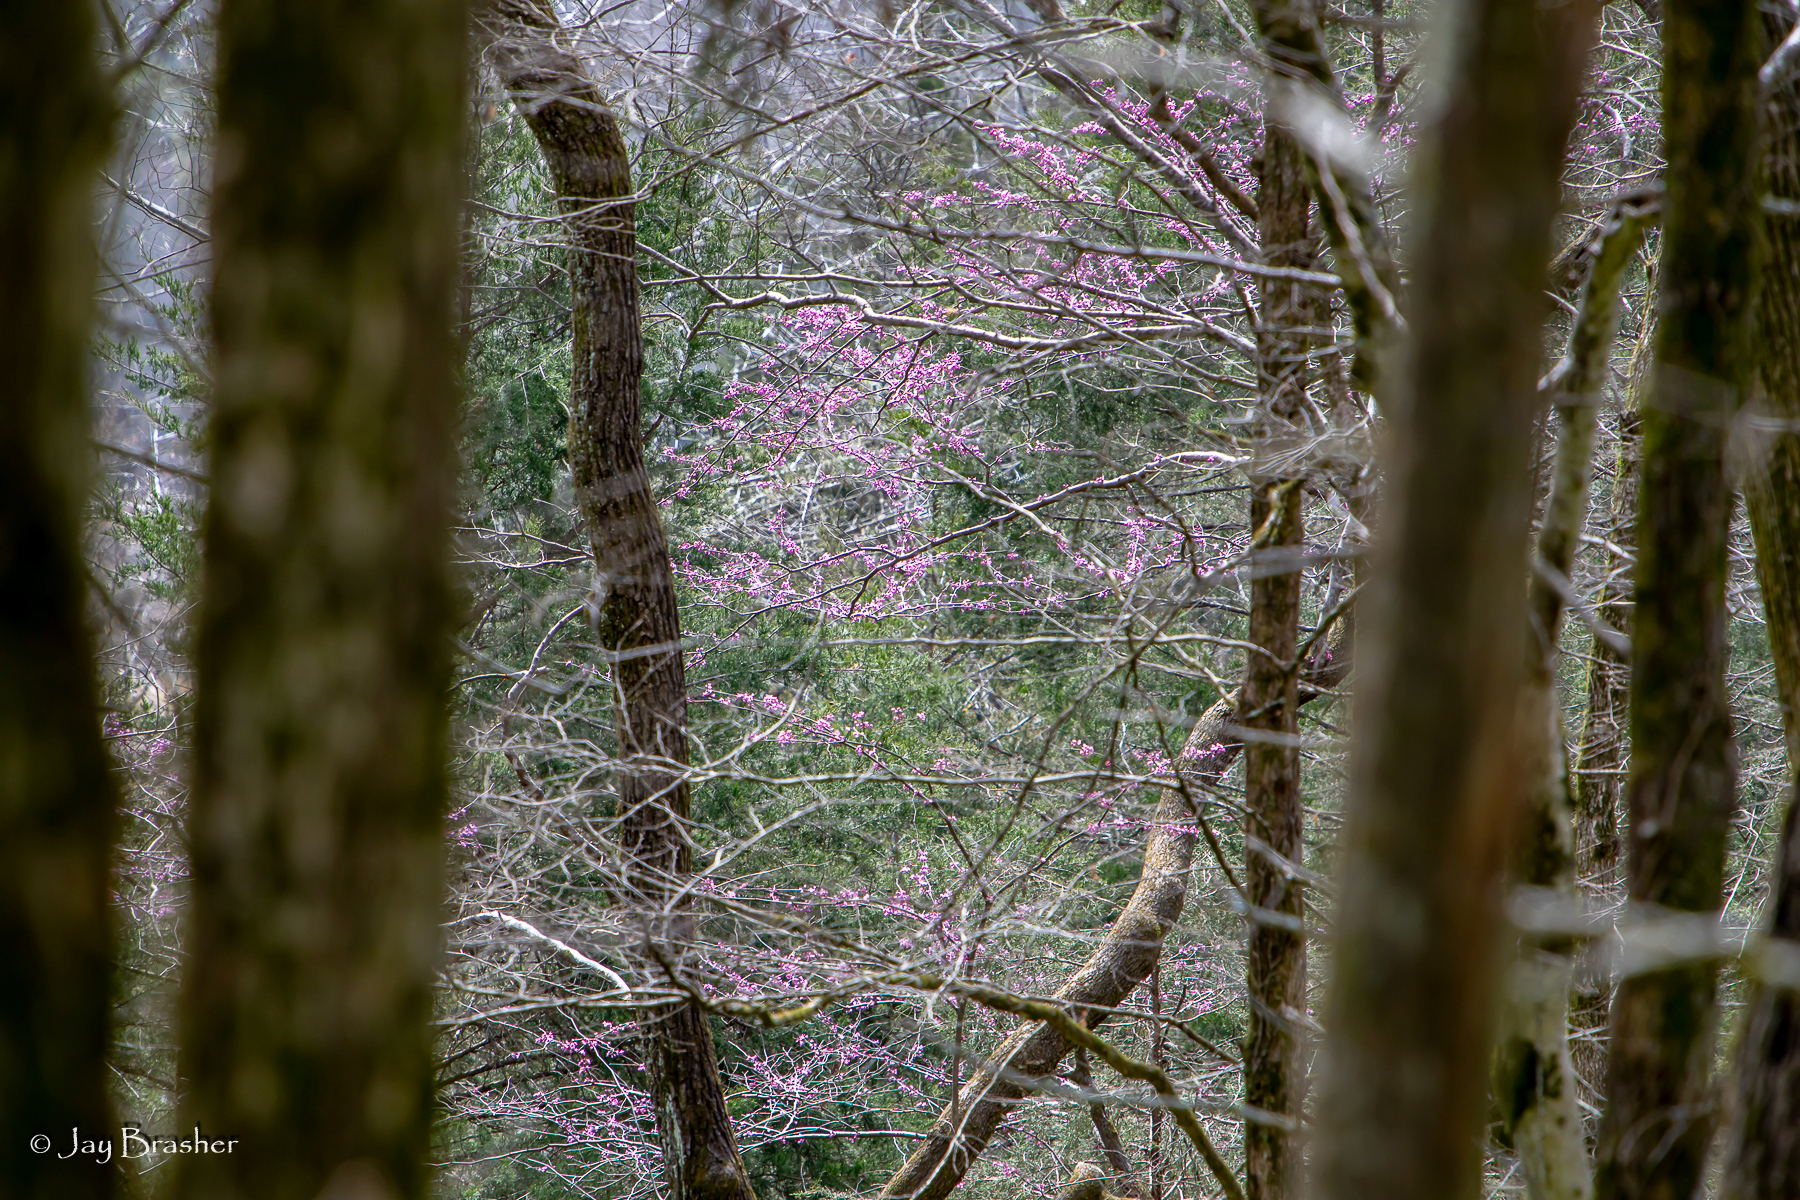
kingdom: Plantae
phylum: Tracheophyta
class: Magnoliopsida
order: Fabales
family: Fabaceae
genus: Cercis
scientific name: Cercis canadensis
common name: Eastern redbud
